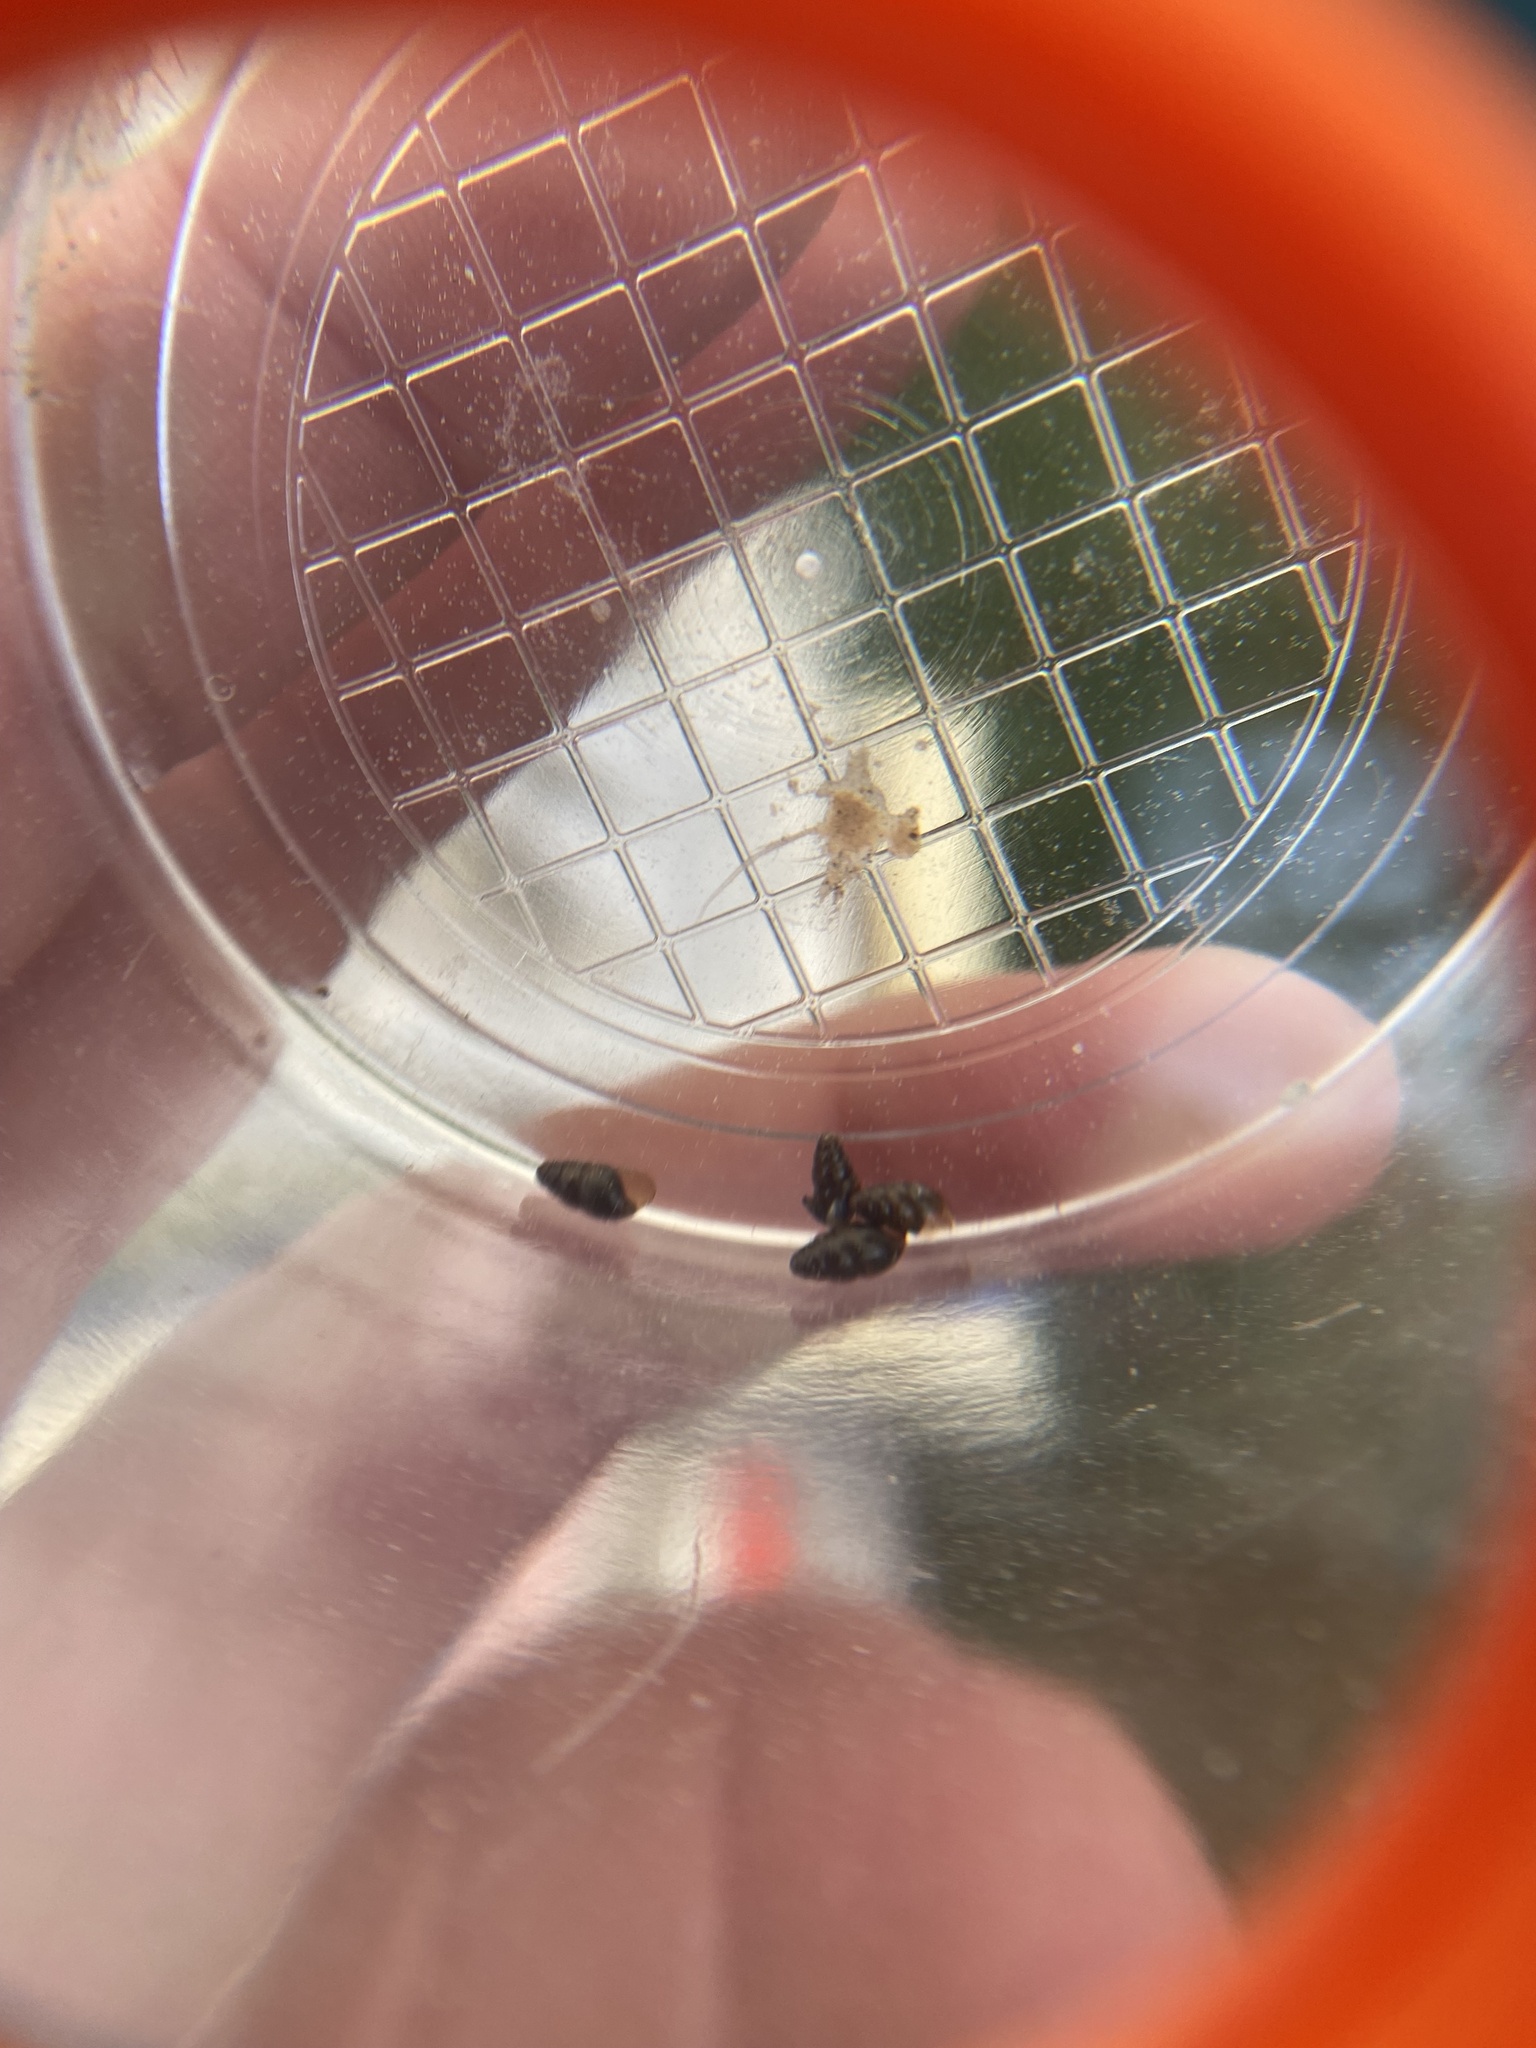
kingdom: Animalia
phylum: Mollusca
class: Gastropoda
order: Stylommatophora
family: Cochlicopidae
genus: Cochlicopa
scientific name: Cochlicopa lubrica
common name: Glossy pillar snail
